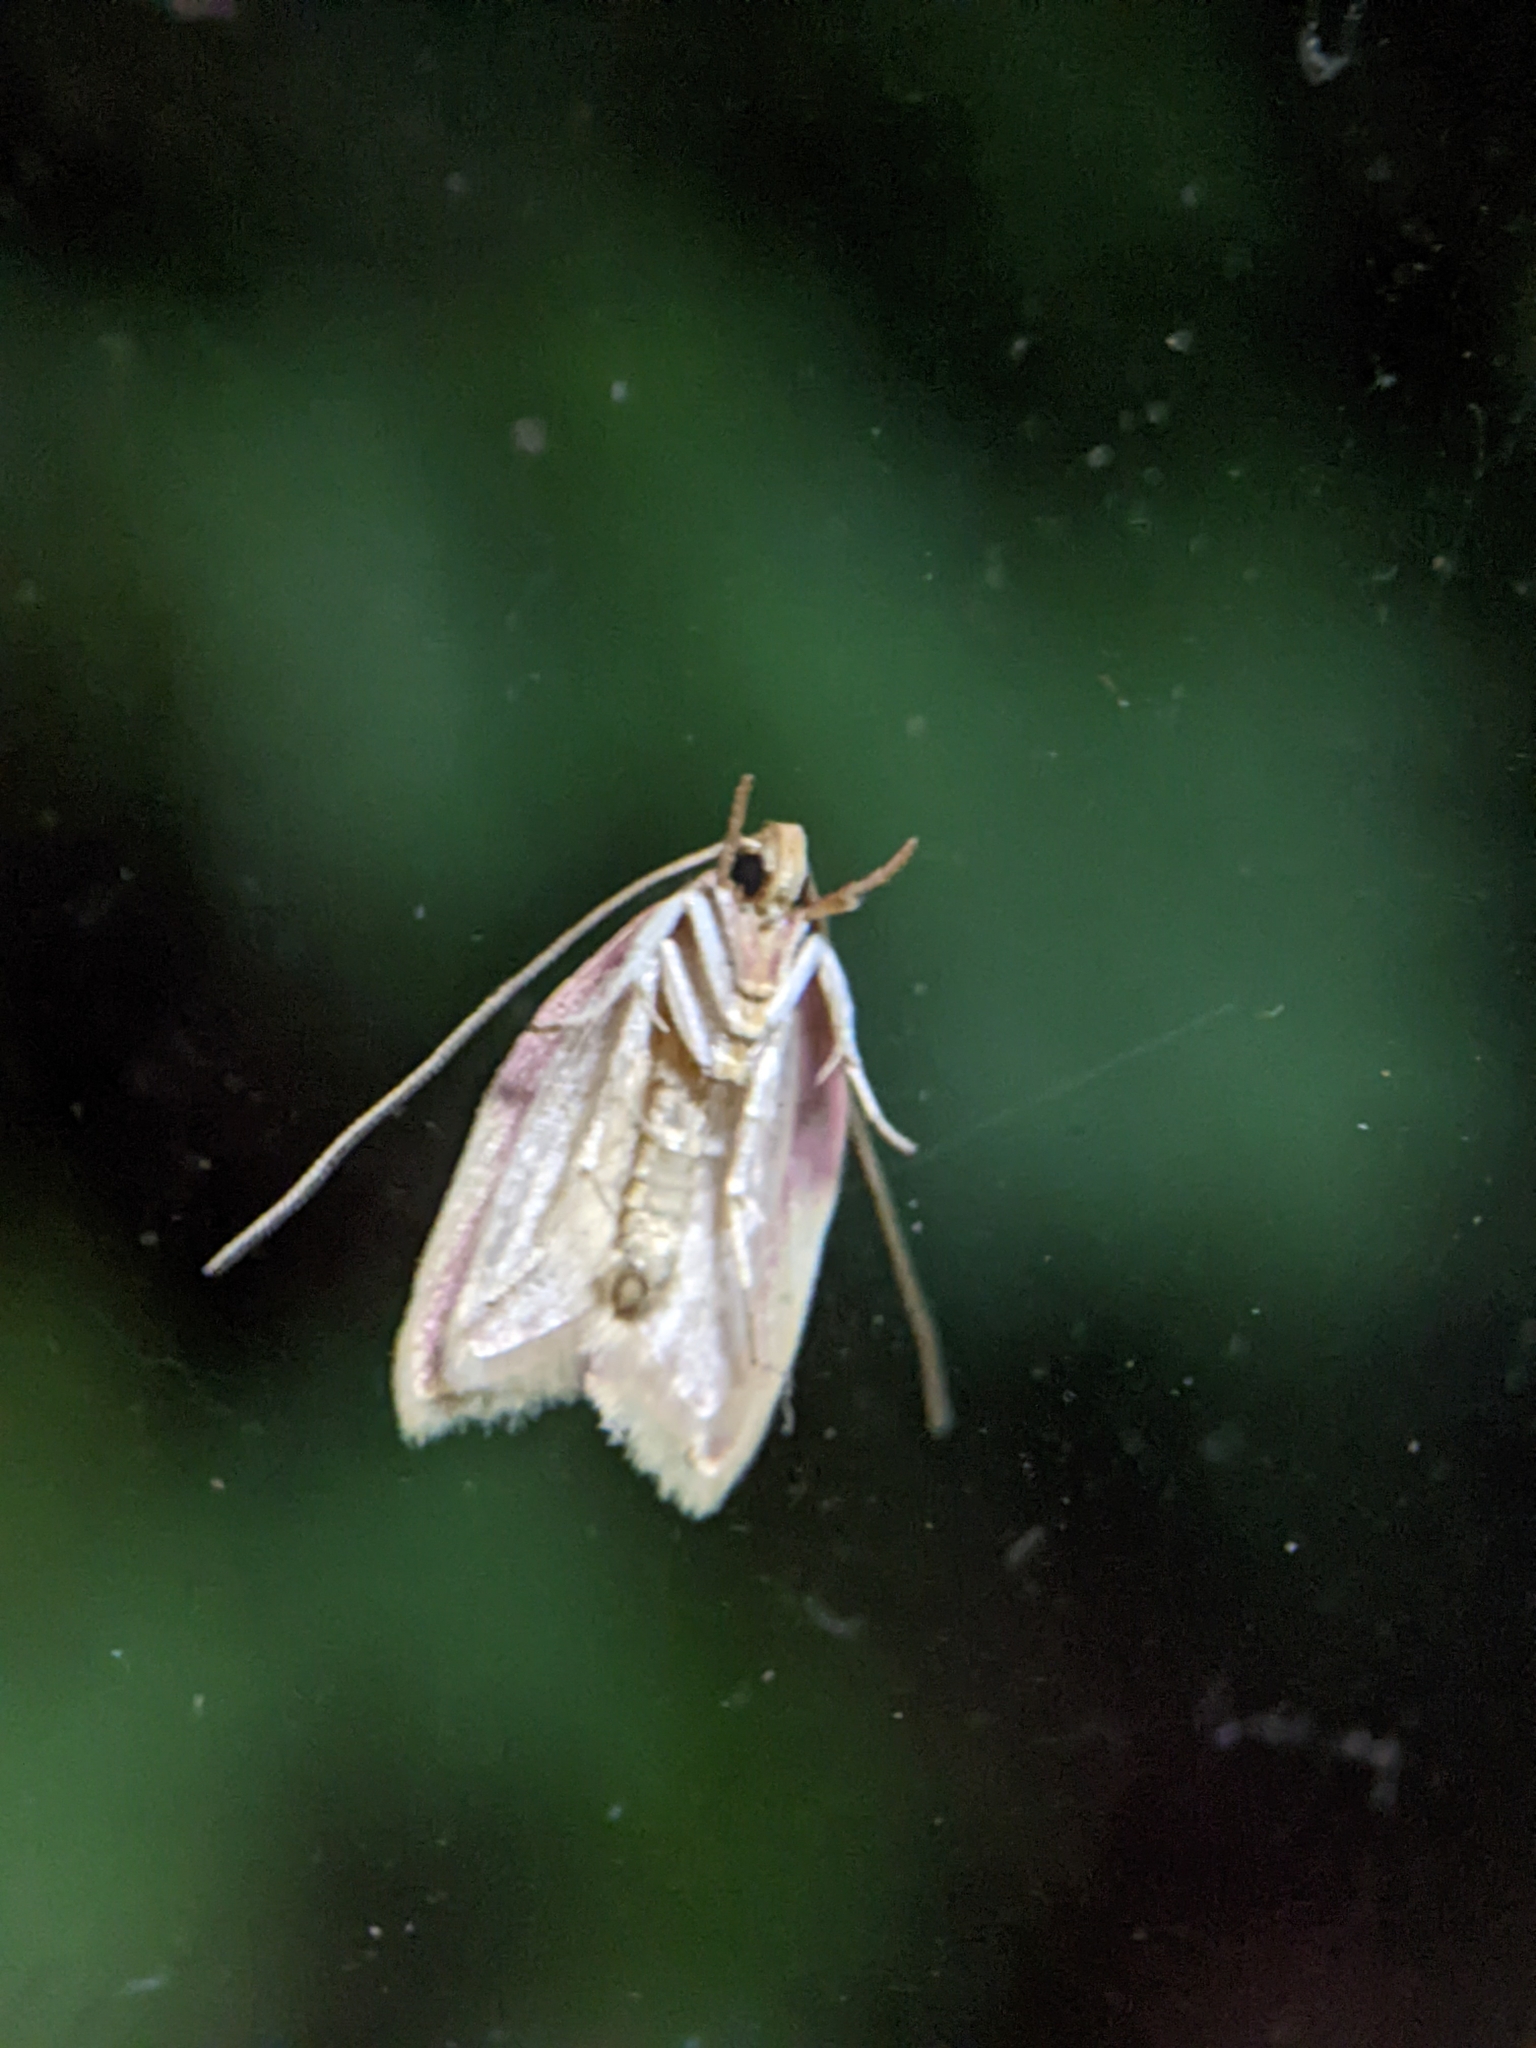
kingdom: Animalia
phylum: Arthropoda
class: Insecta
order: Lepidoptera
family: Peleopodidae
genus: Carcina
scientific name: Carcina quercana
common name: Moth
